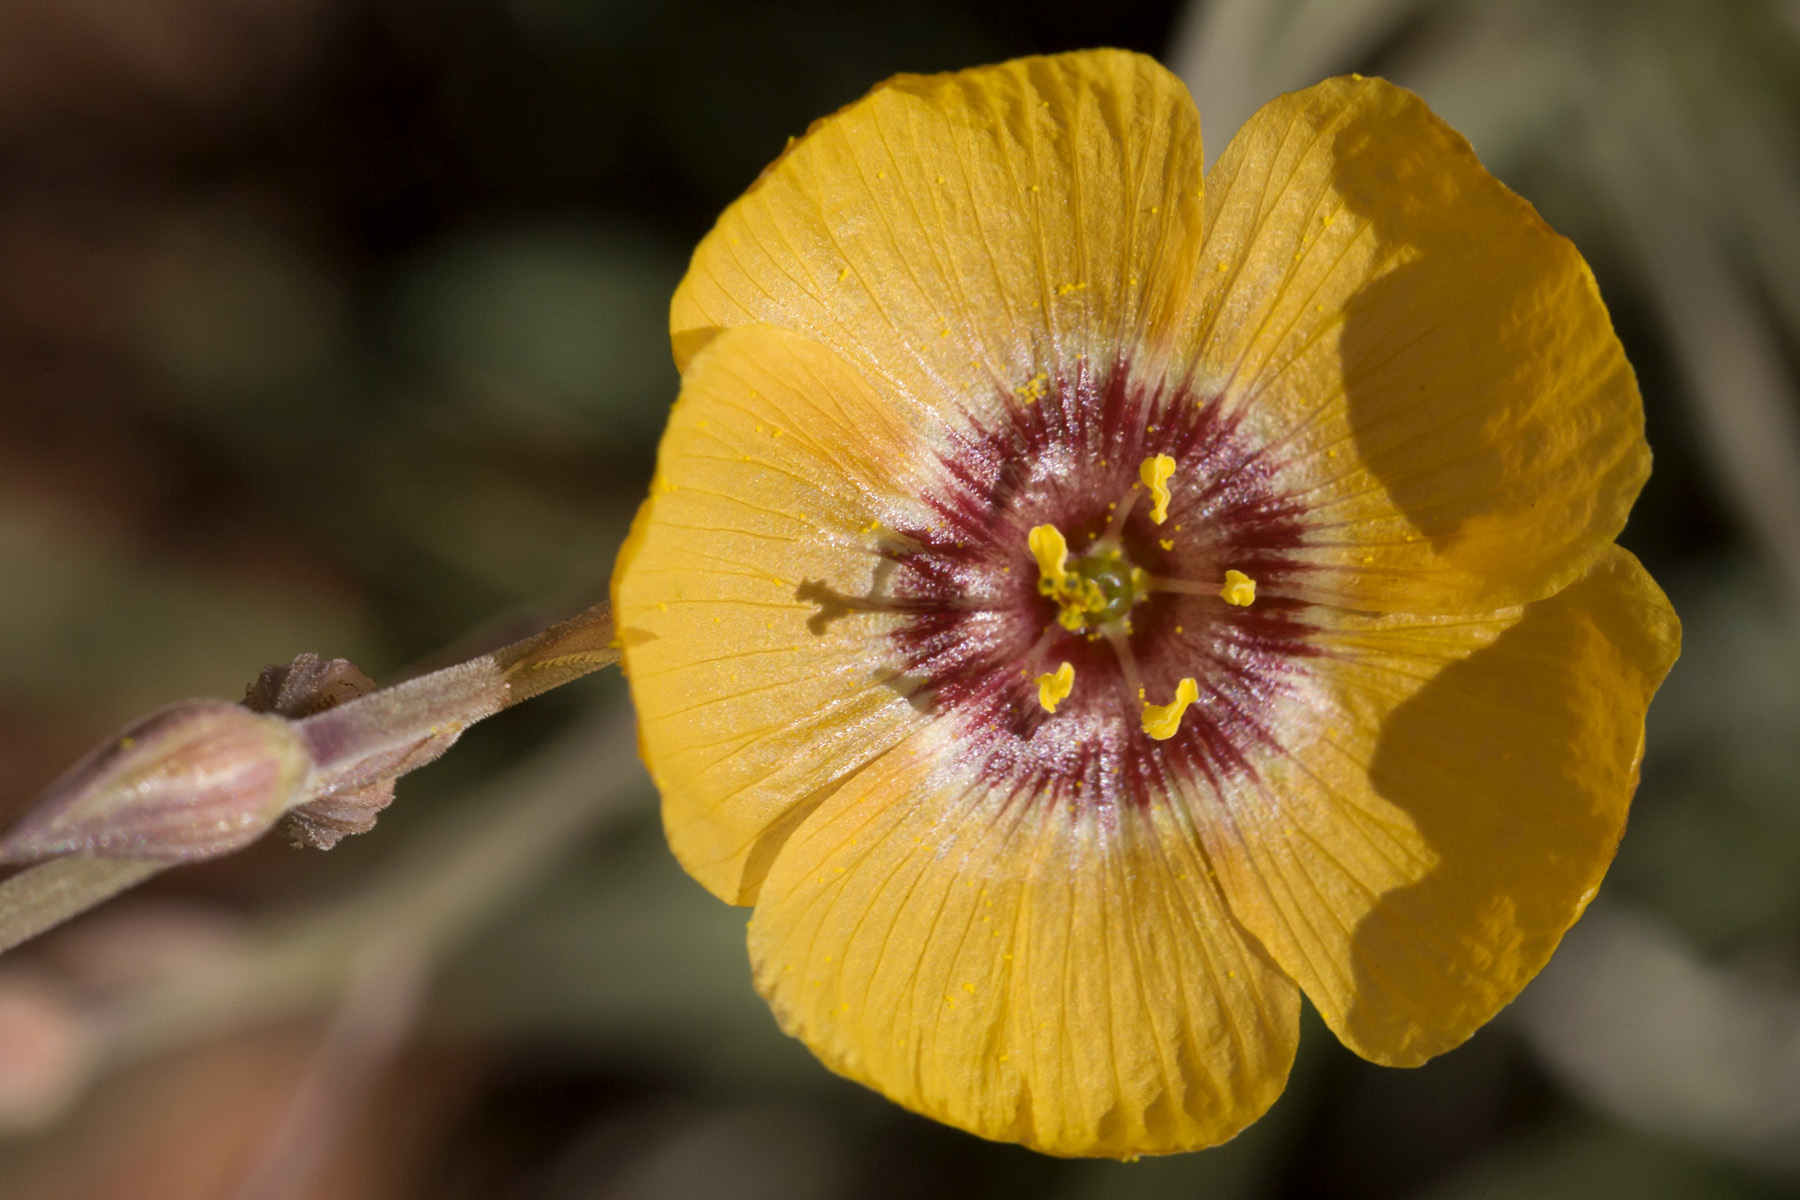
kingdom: Plantae
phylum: Tracheophyta
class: Magnoliopsida
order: Malpighiales
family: Linaceae
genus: Linum
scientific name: Linum puberulum
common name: Plains flax
